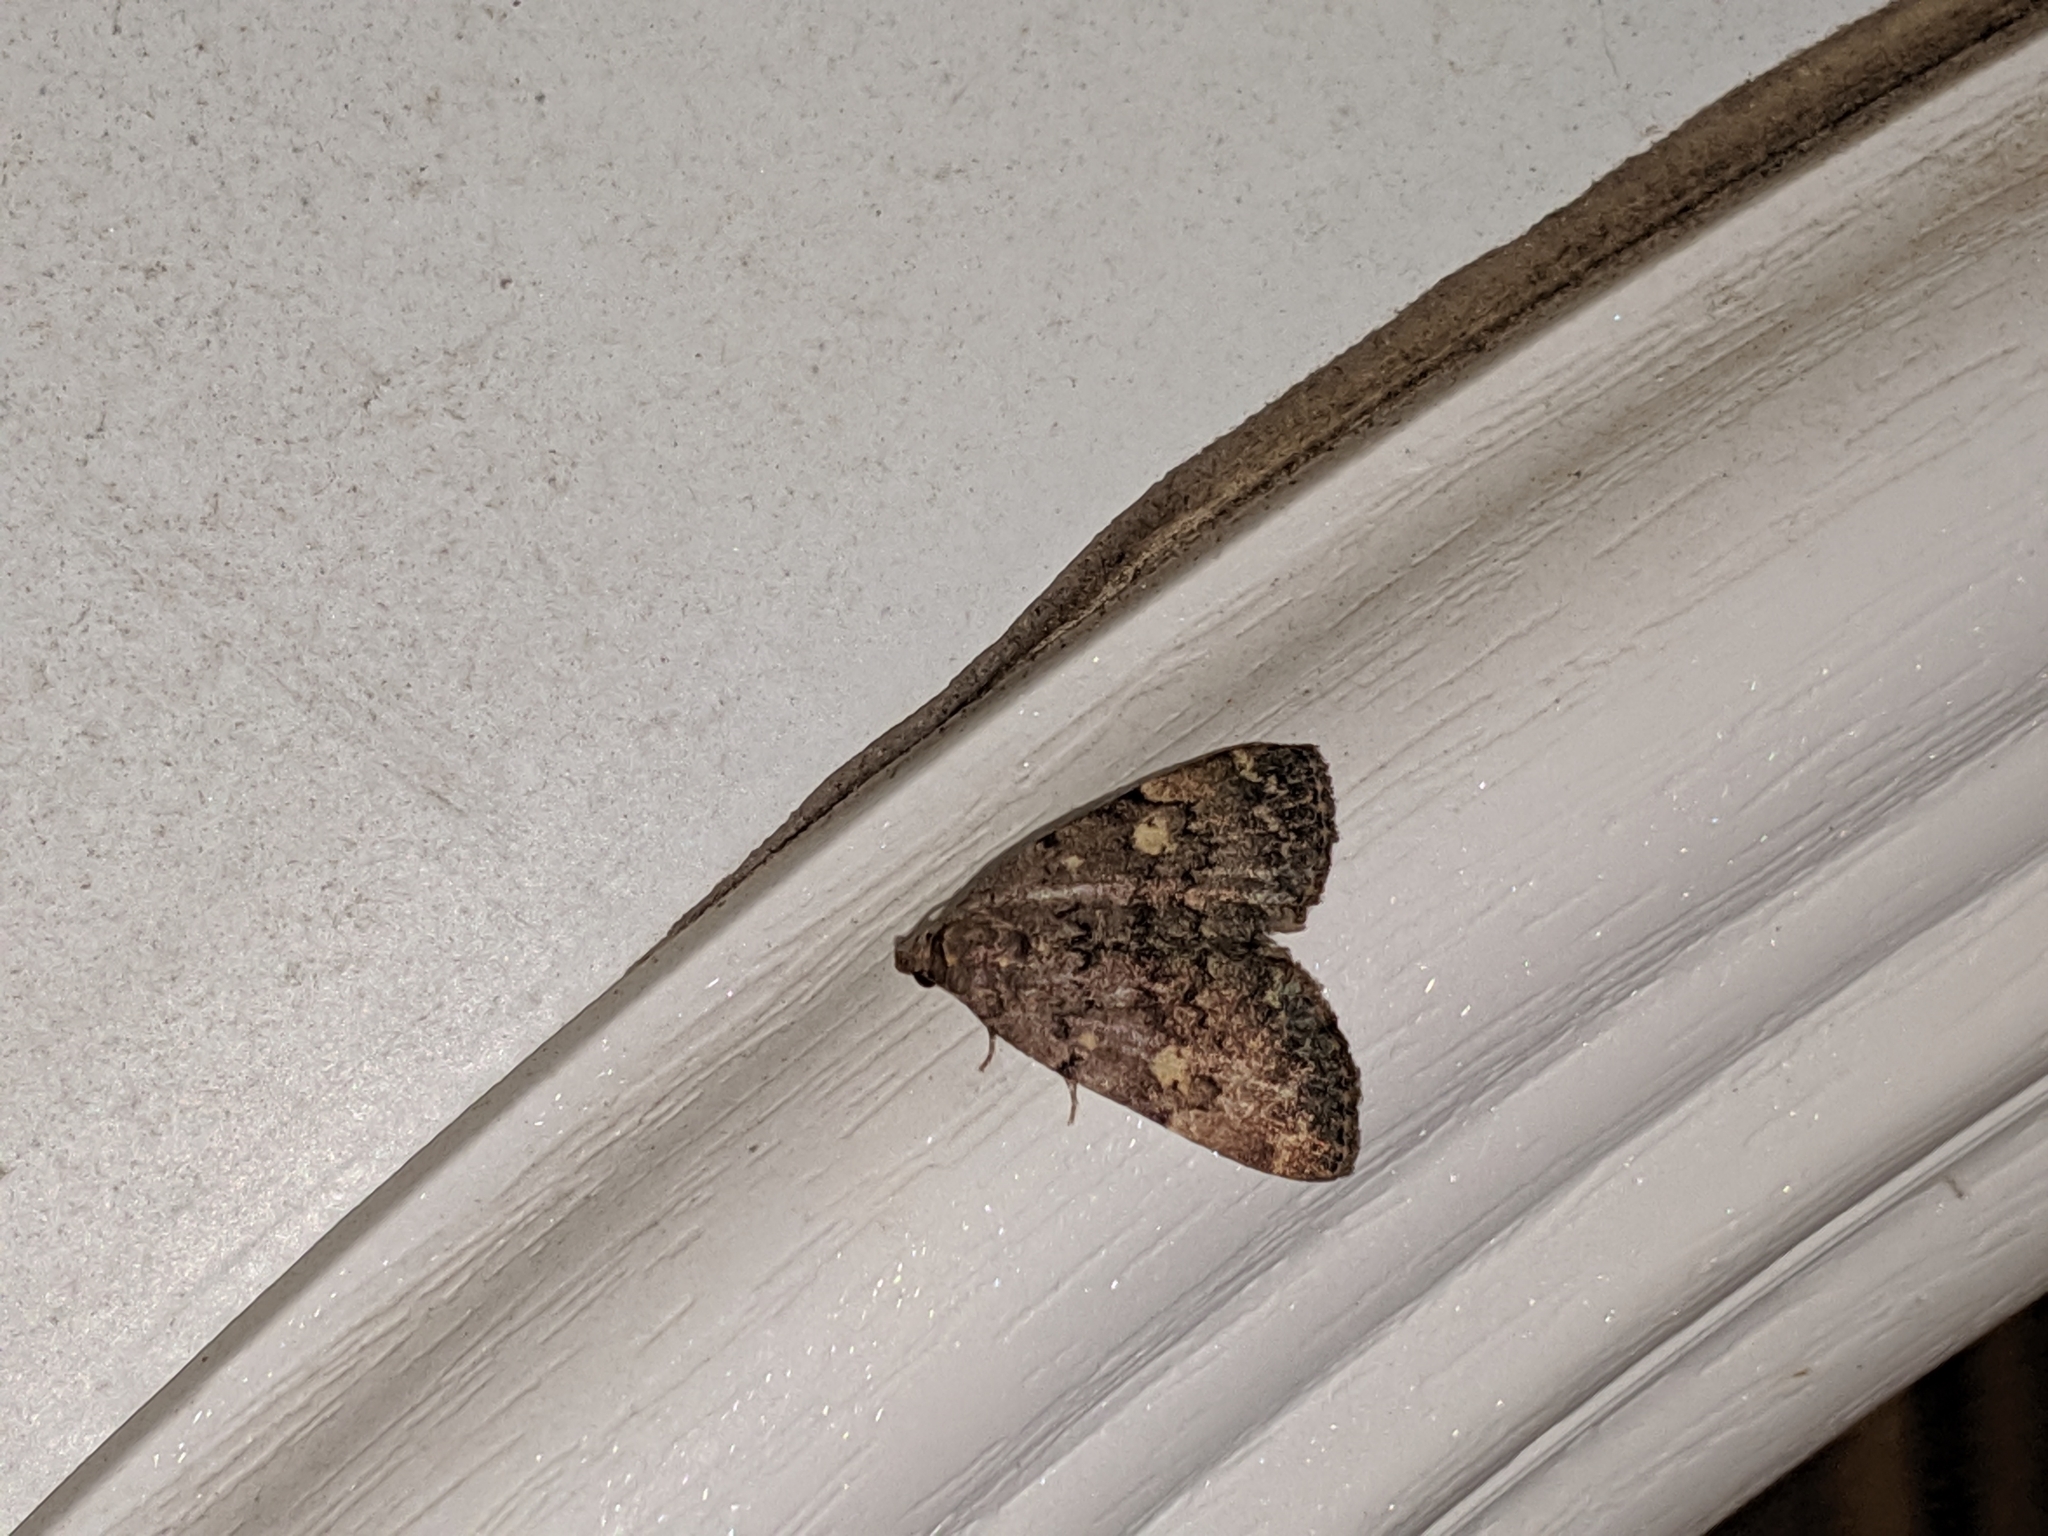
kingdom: Animalia
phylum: Arthropoda
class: Insecta
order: Lepidoptera
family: Erebidae
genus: Idia
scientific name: Idia aemula
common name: Common idia moth
